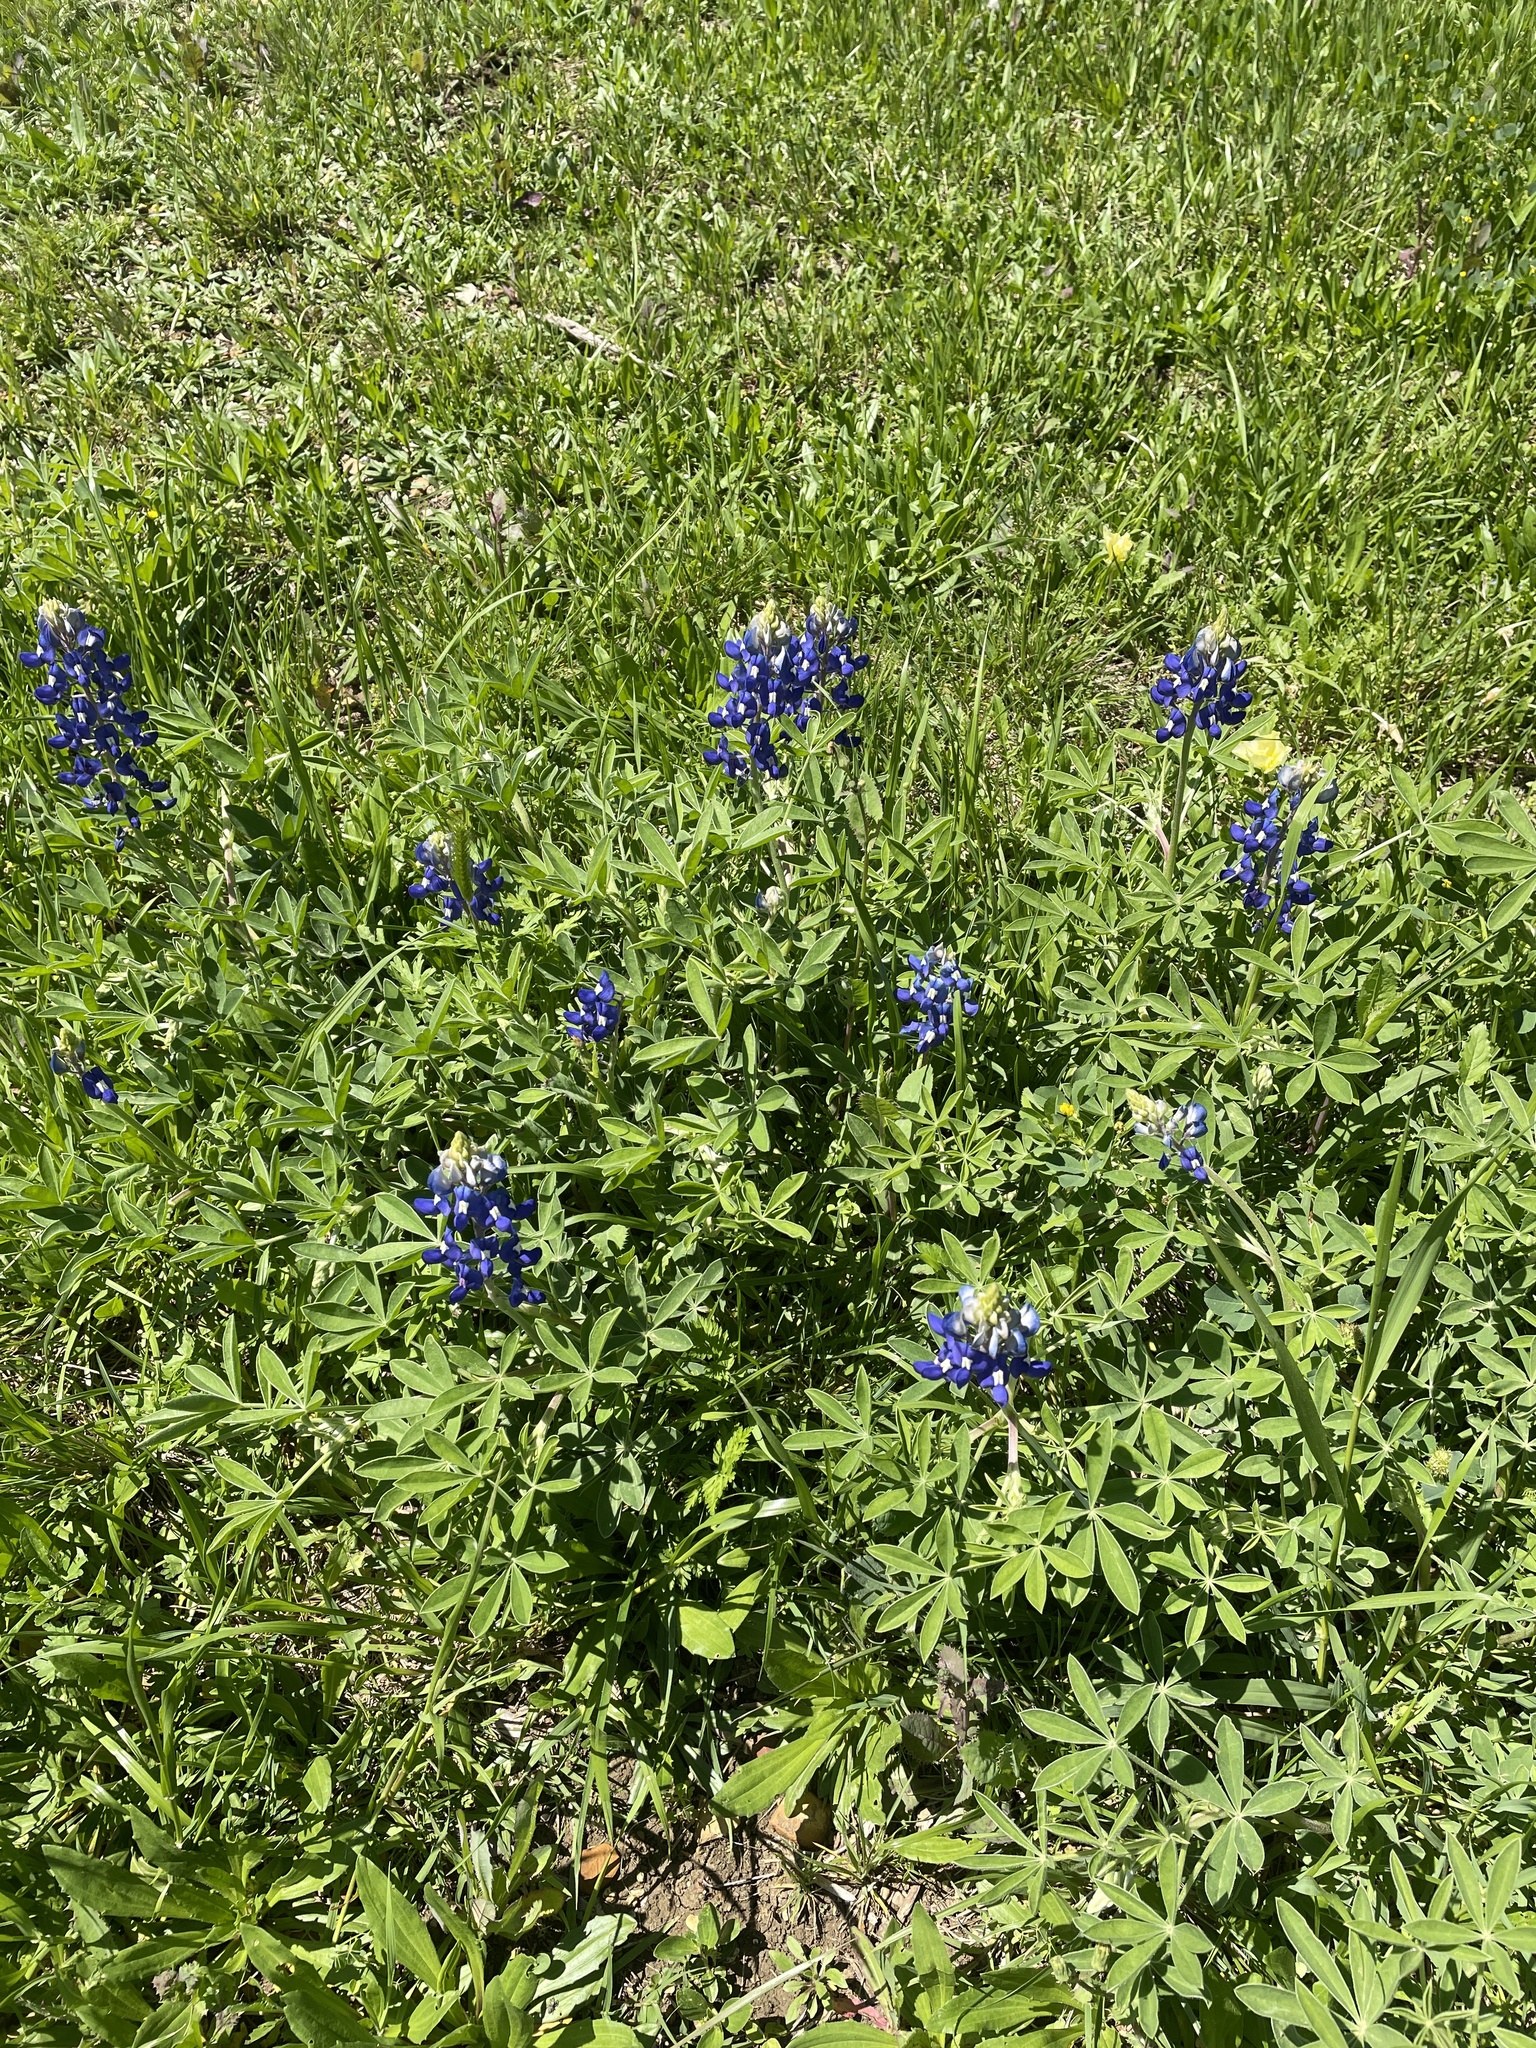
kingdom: Plantae
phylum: Tracheophyta
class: Magnoliopsida
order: Fabales
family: Fabaceae
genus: Lupinus
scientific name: Lupinus texensis
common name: Texas bluebonnet
